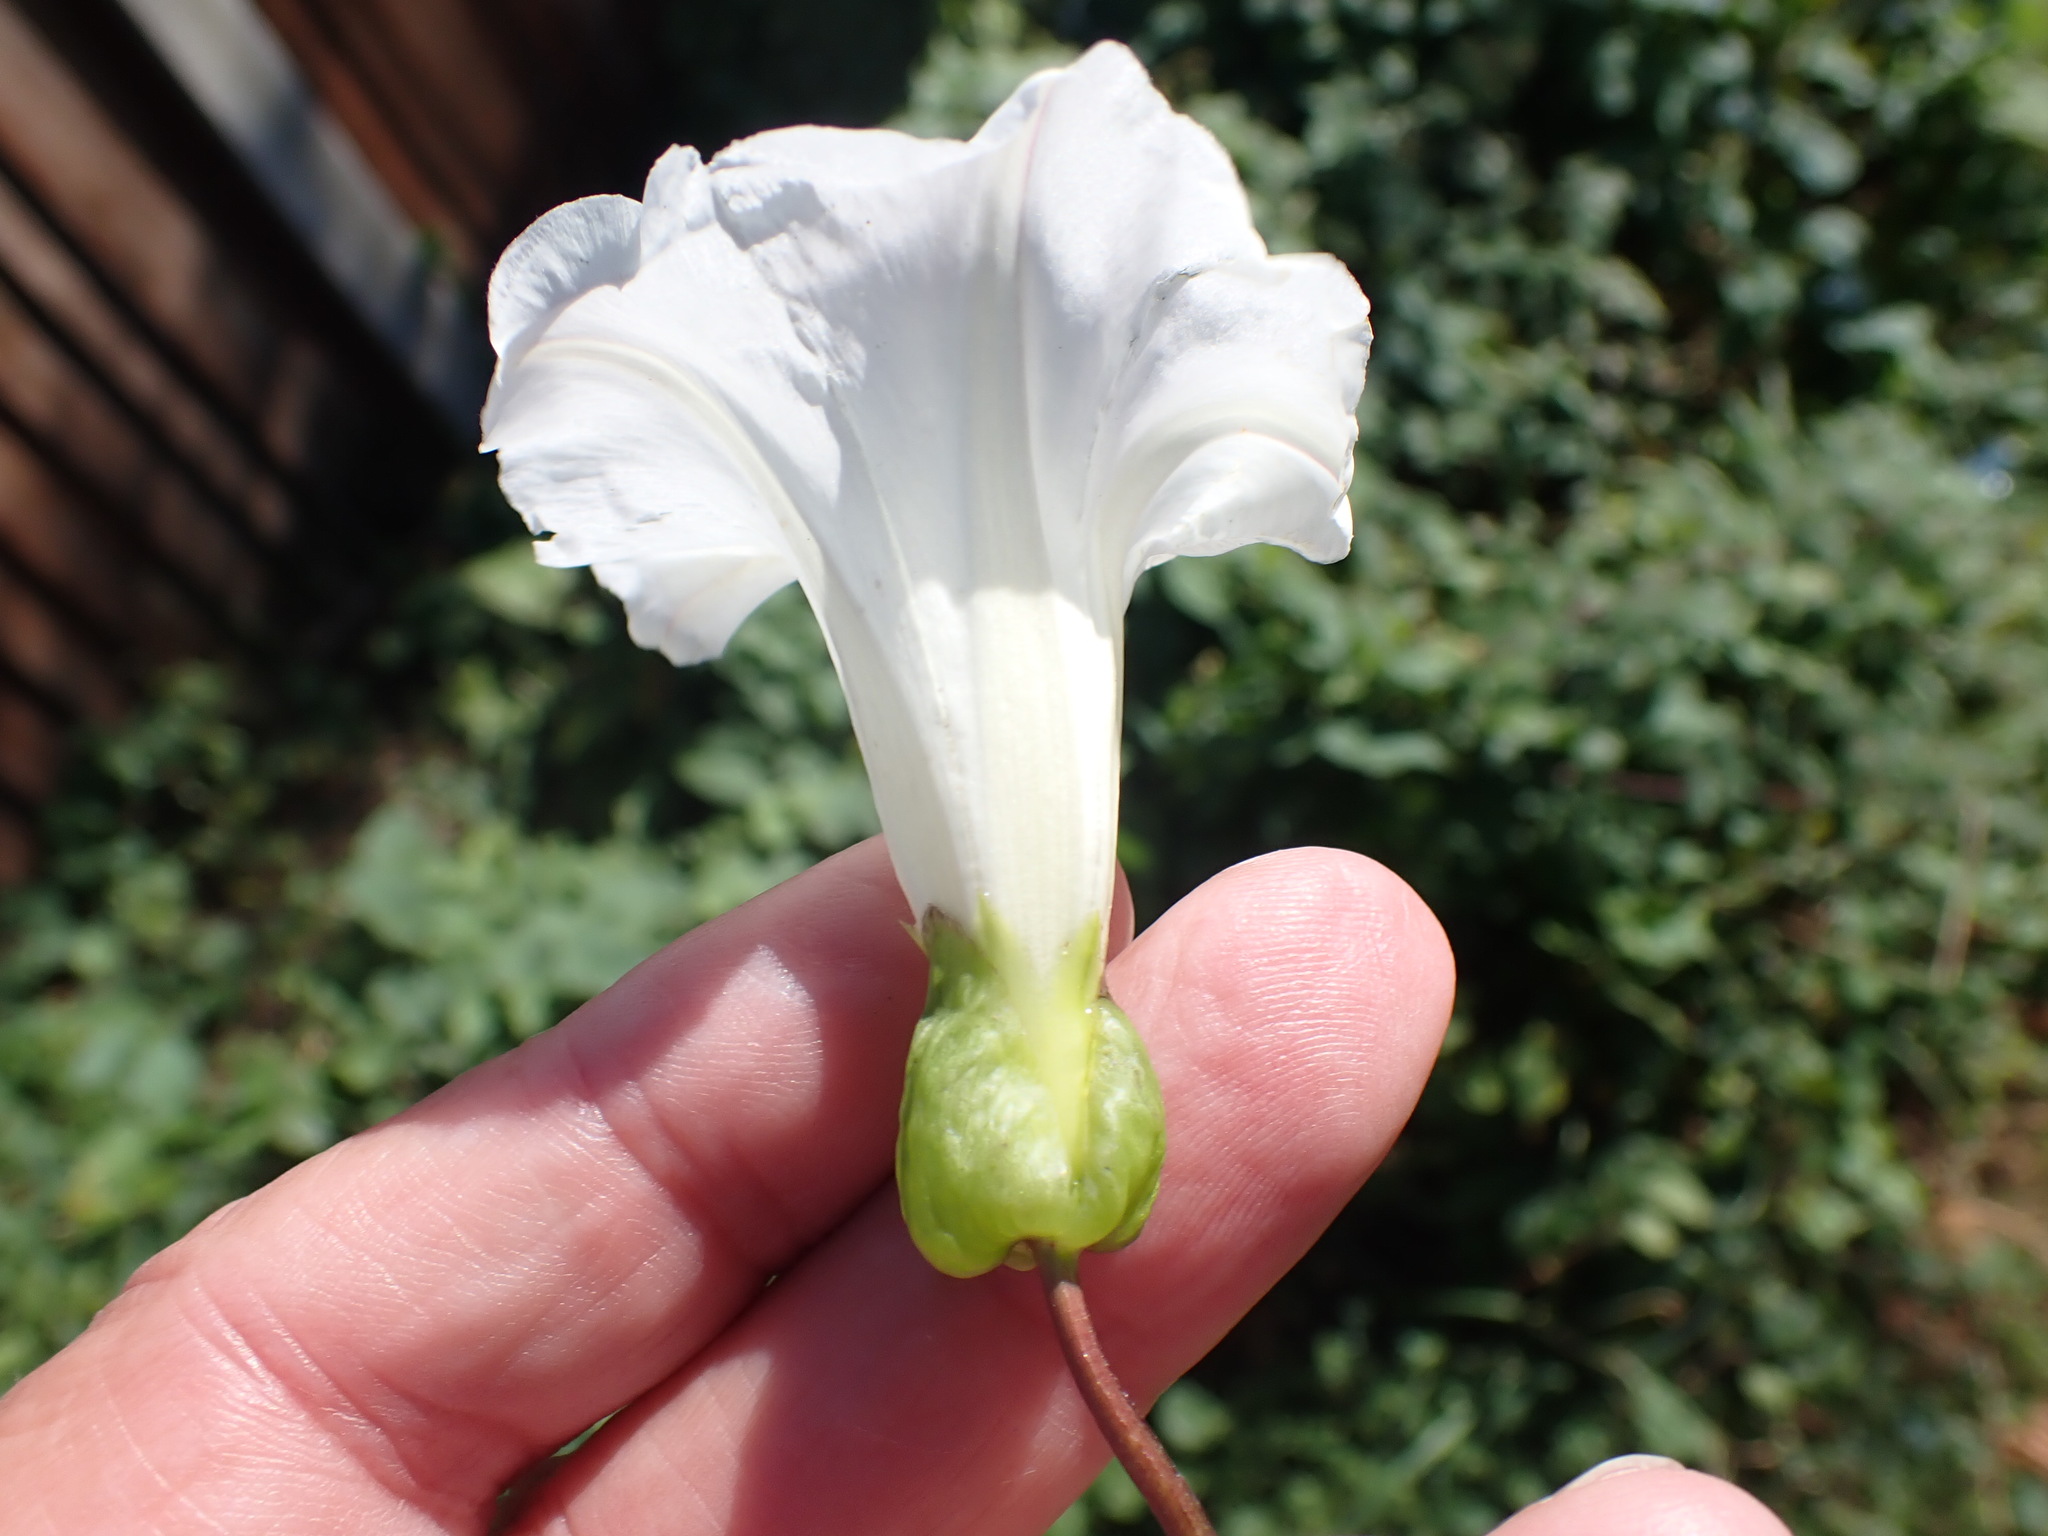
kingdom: Plantae
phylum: Tracheophyta
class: Magnoliopsida
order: Solanales
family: Convolvulaceae
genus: Calystegia
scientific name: Calystegia sepium
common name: Hedge bindweed
